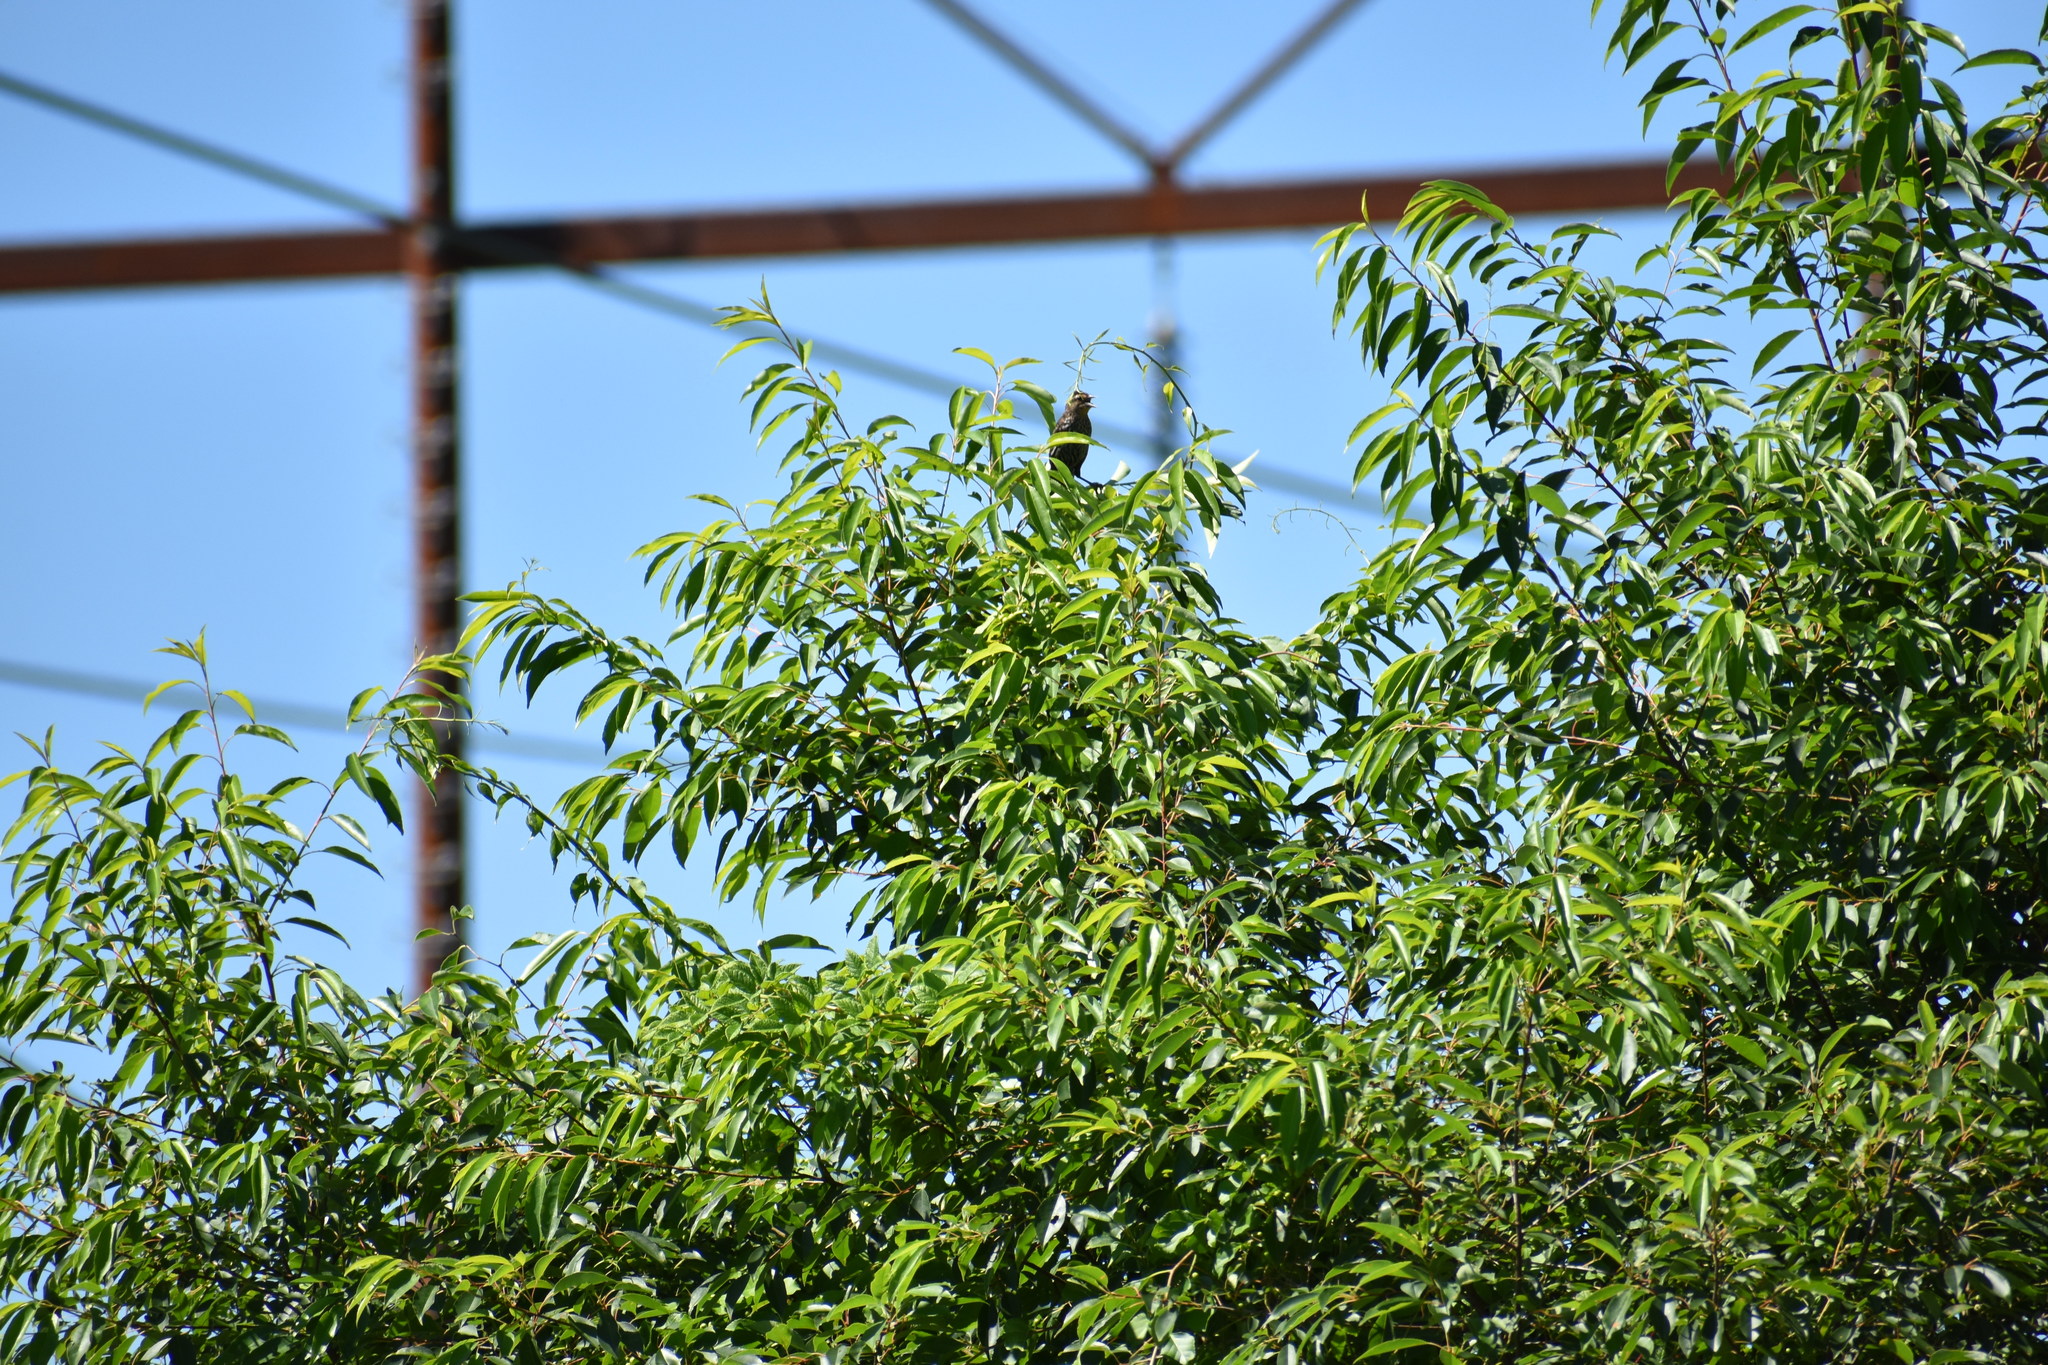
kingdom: Animalia
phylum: Chordata
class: Aves
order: Passeriformes
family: Icteridae
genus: Agelaius
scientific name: Agelaius phoeniceus
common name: Red-winged blackbird
